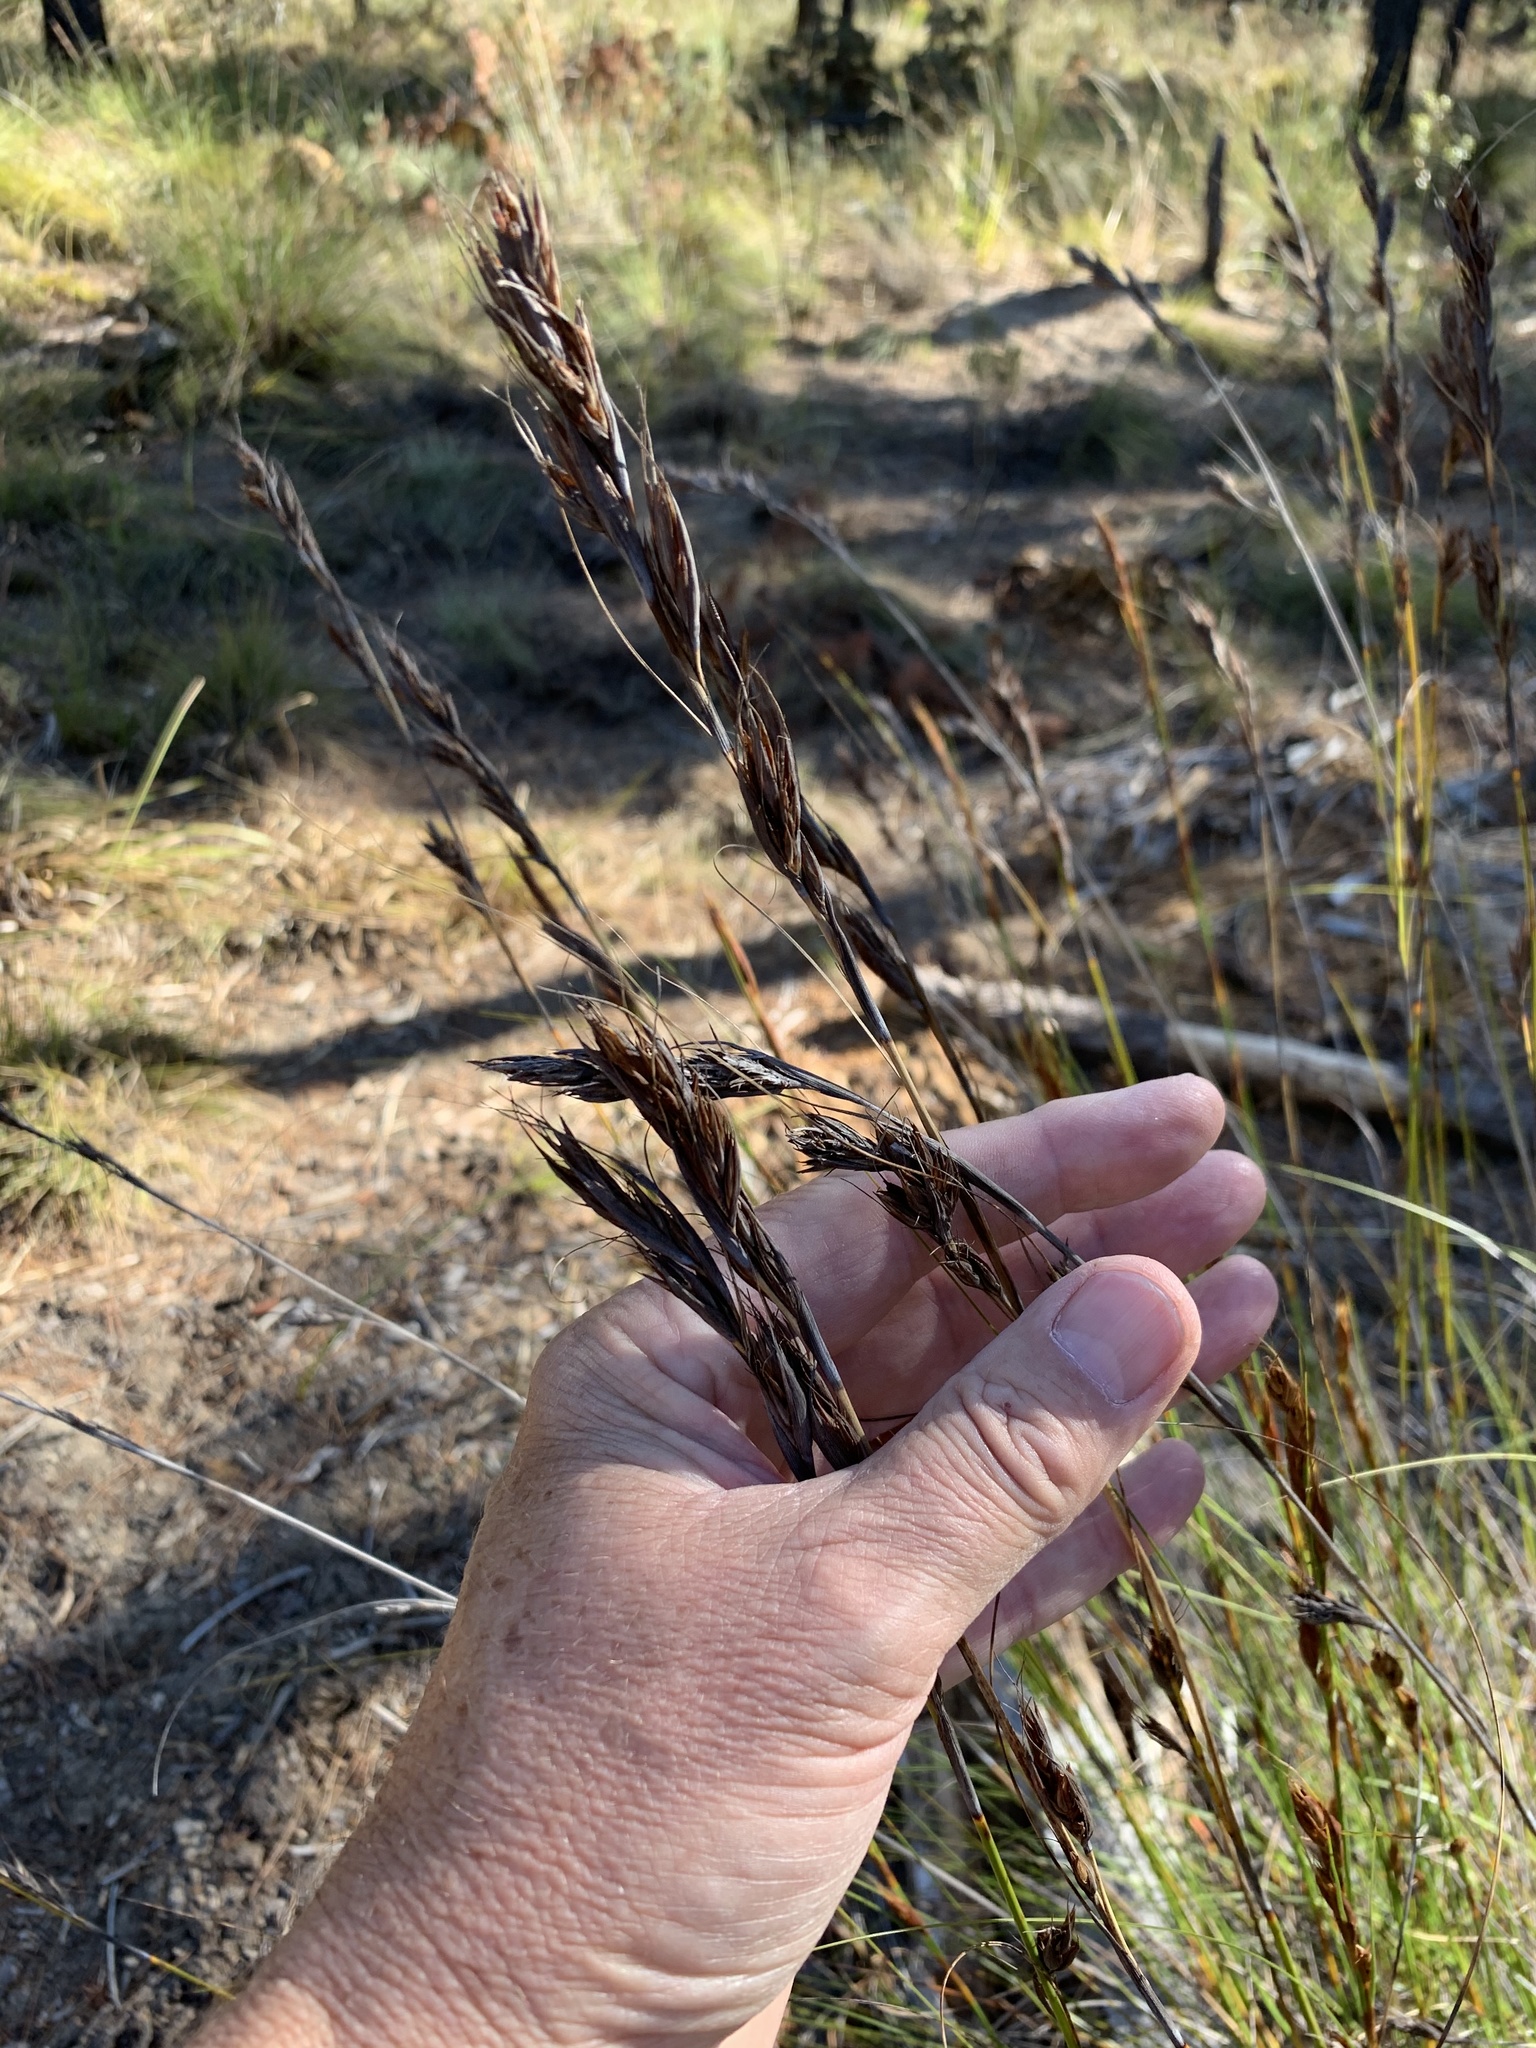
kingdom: Plantae
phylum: Tracheophyta
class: Liliopsida
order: Poales
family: Cyperaceae
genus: Tetraria
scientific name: Tetraria ustulata
